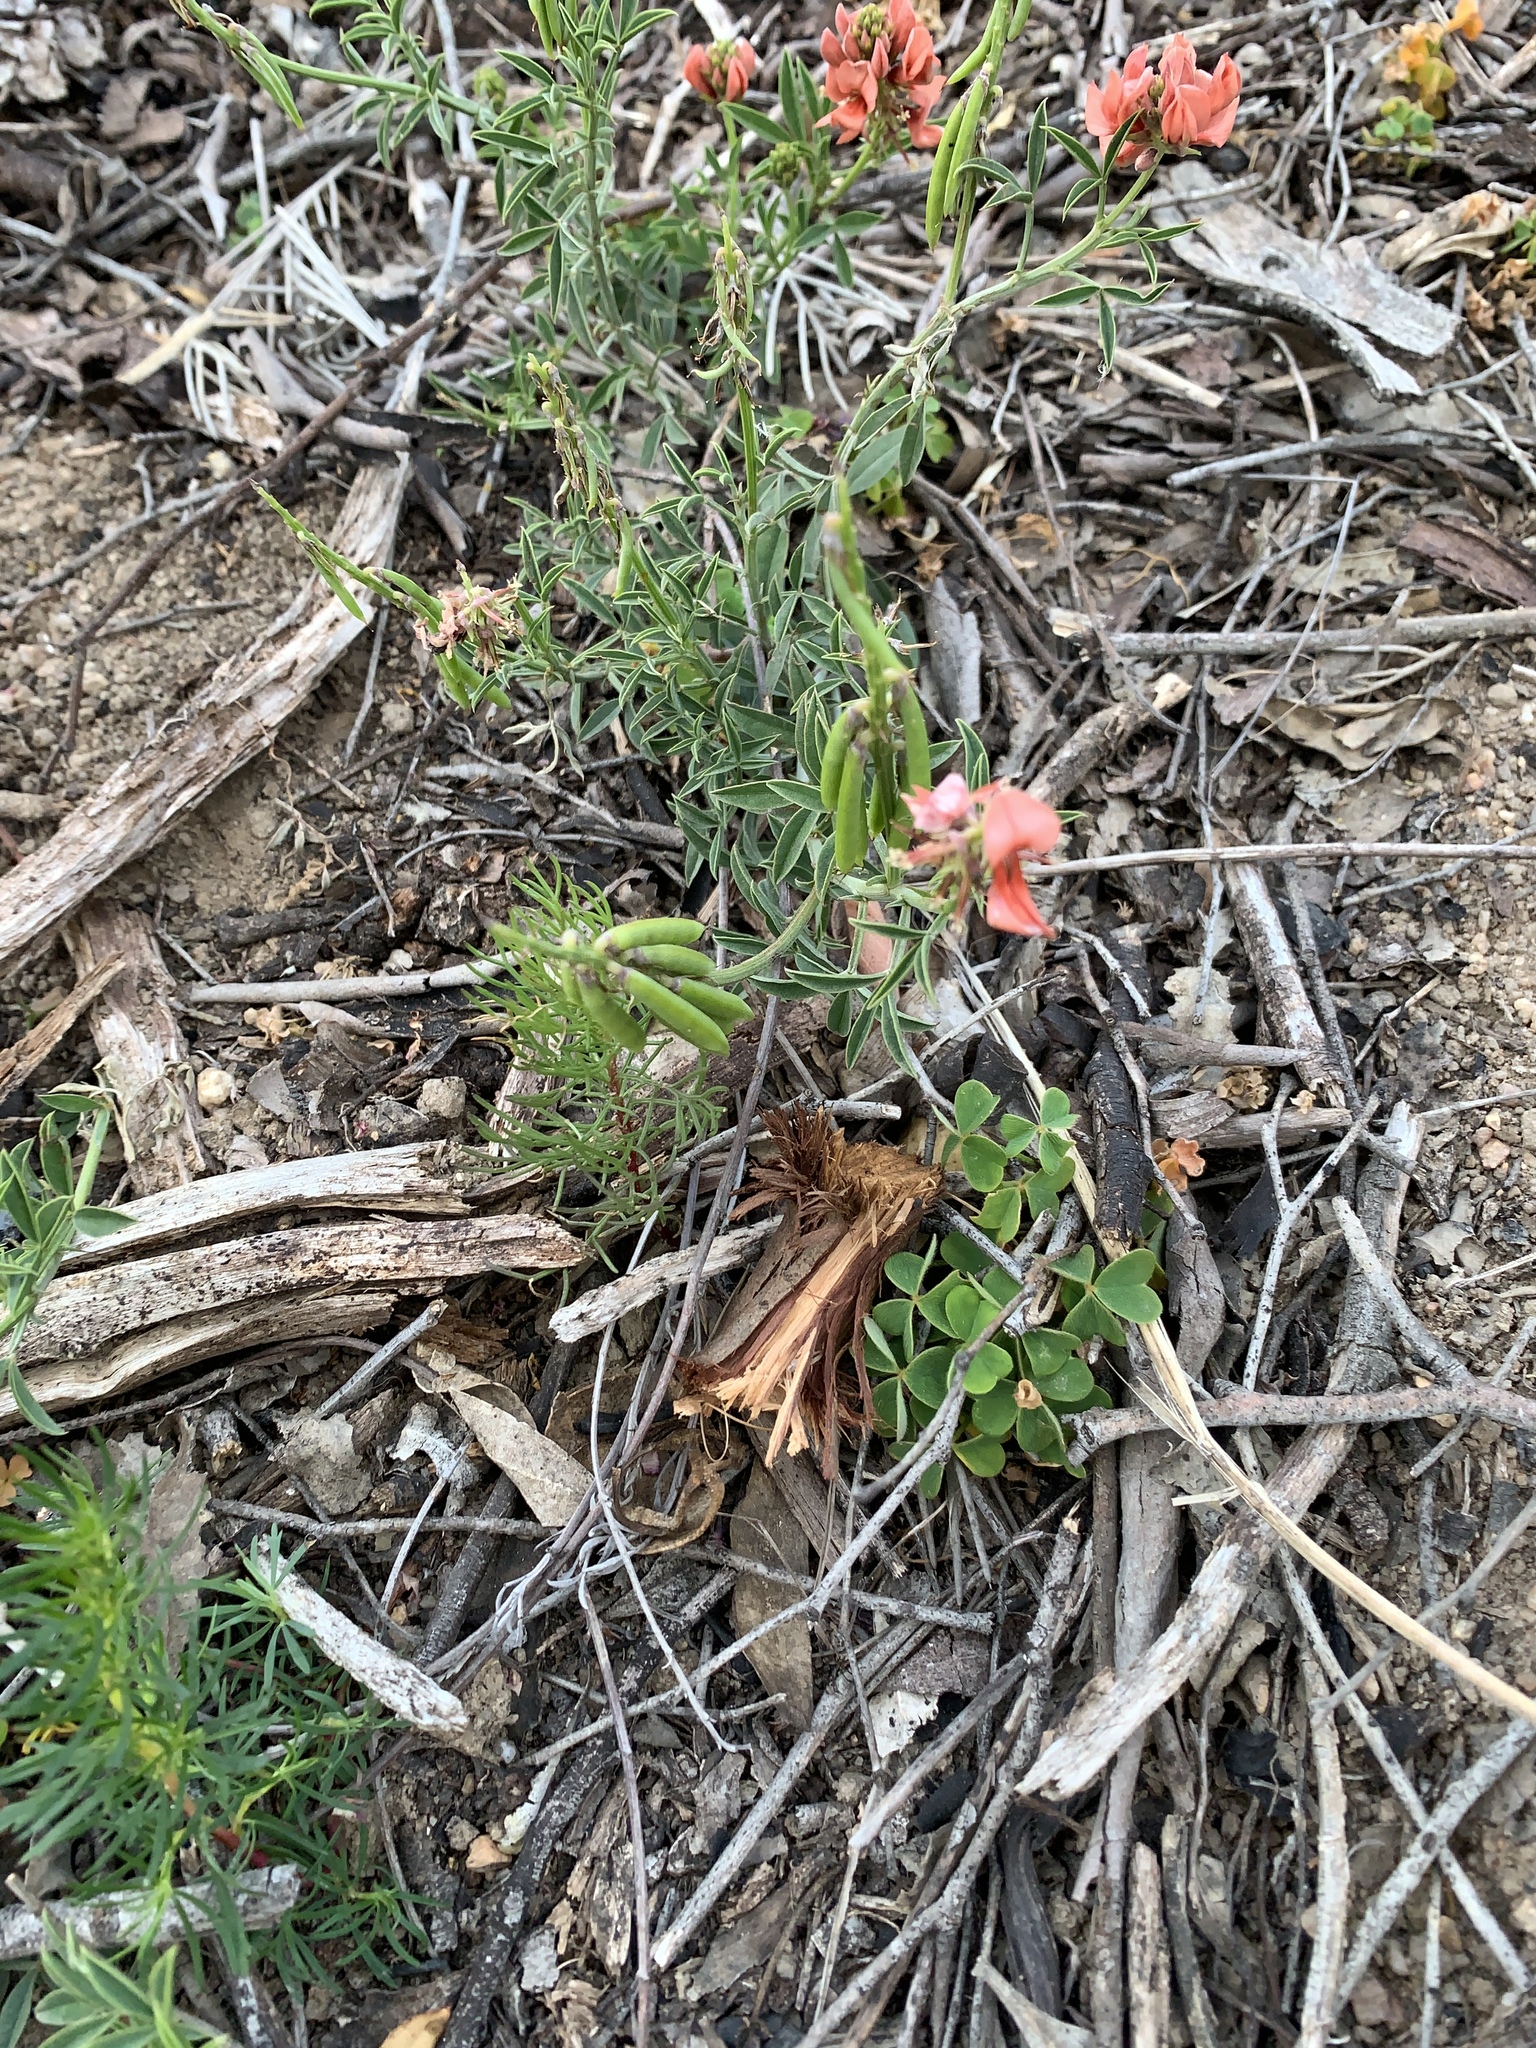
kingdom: Plantae
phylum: Tracheophyta
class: Magnoliopsida
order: Fabales
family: Fabaceae
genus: Indigofera
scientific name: Indigofera complanata
